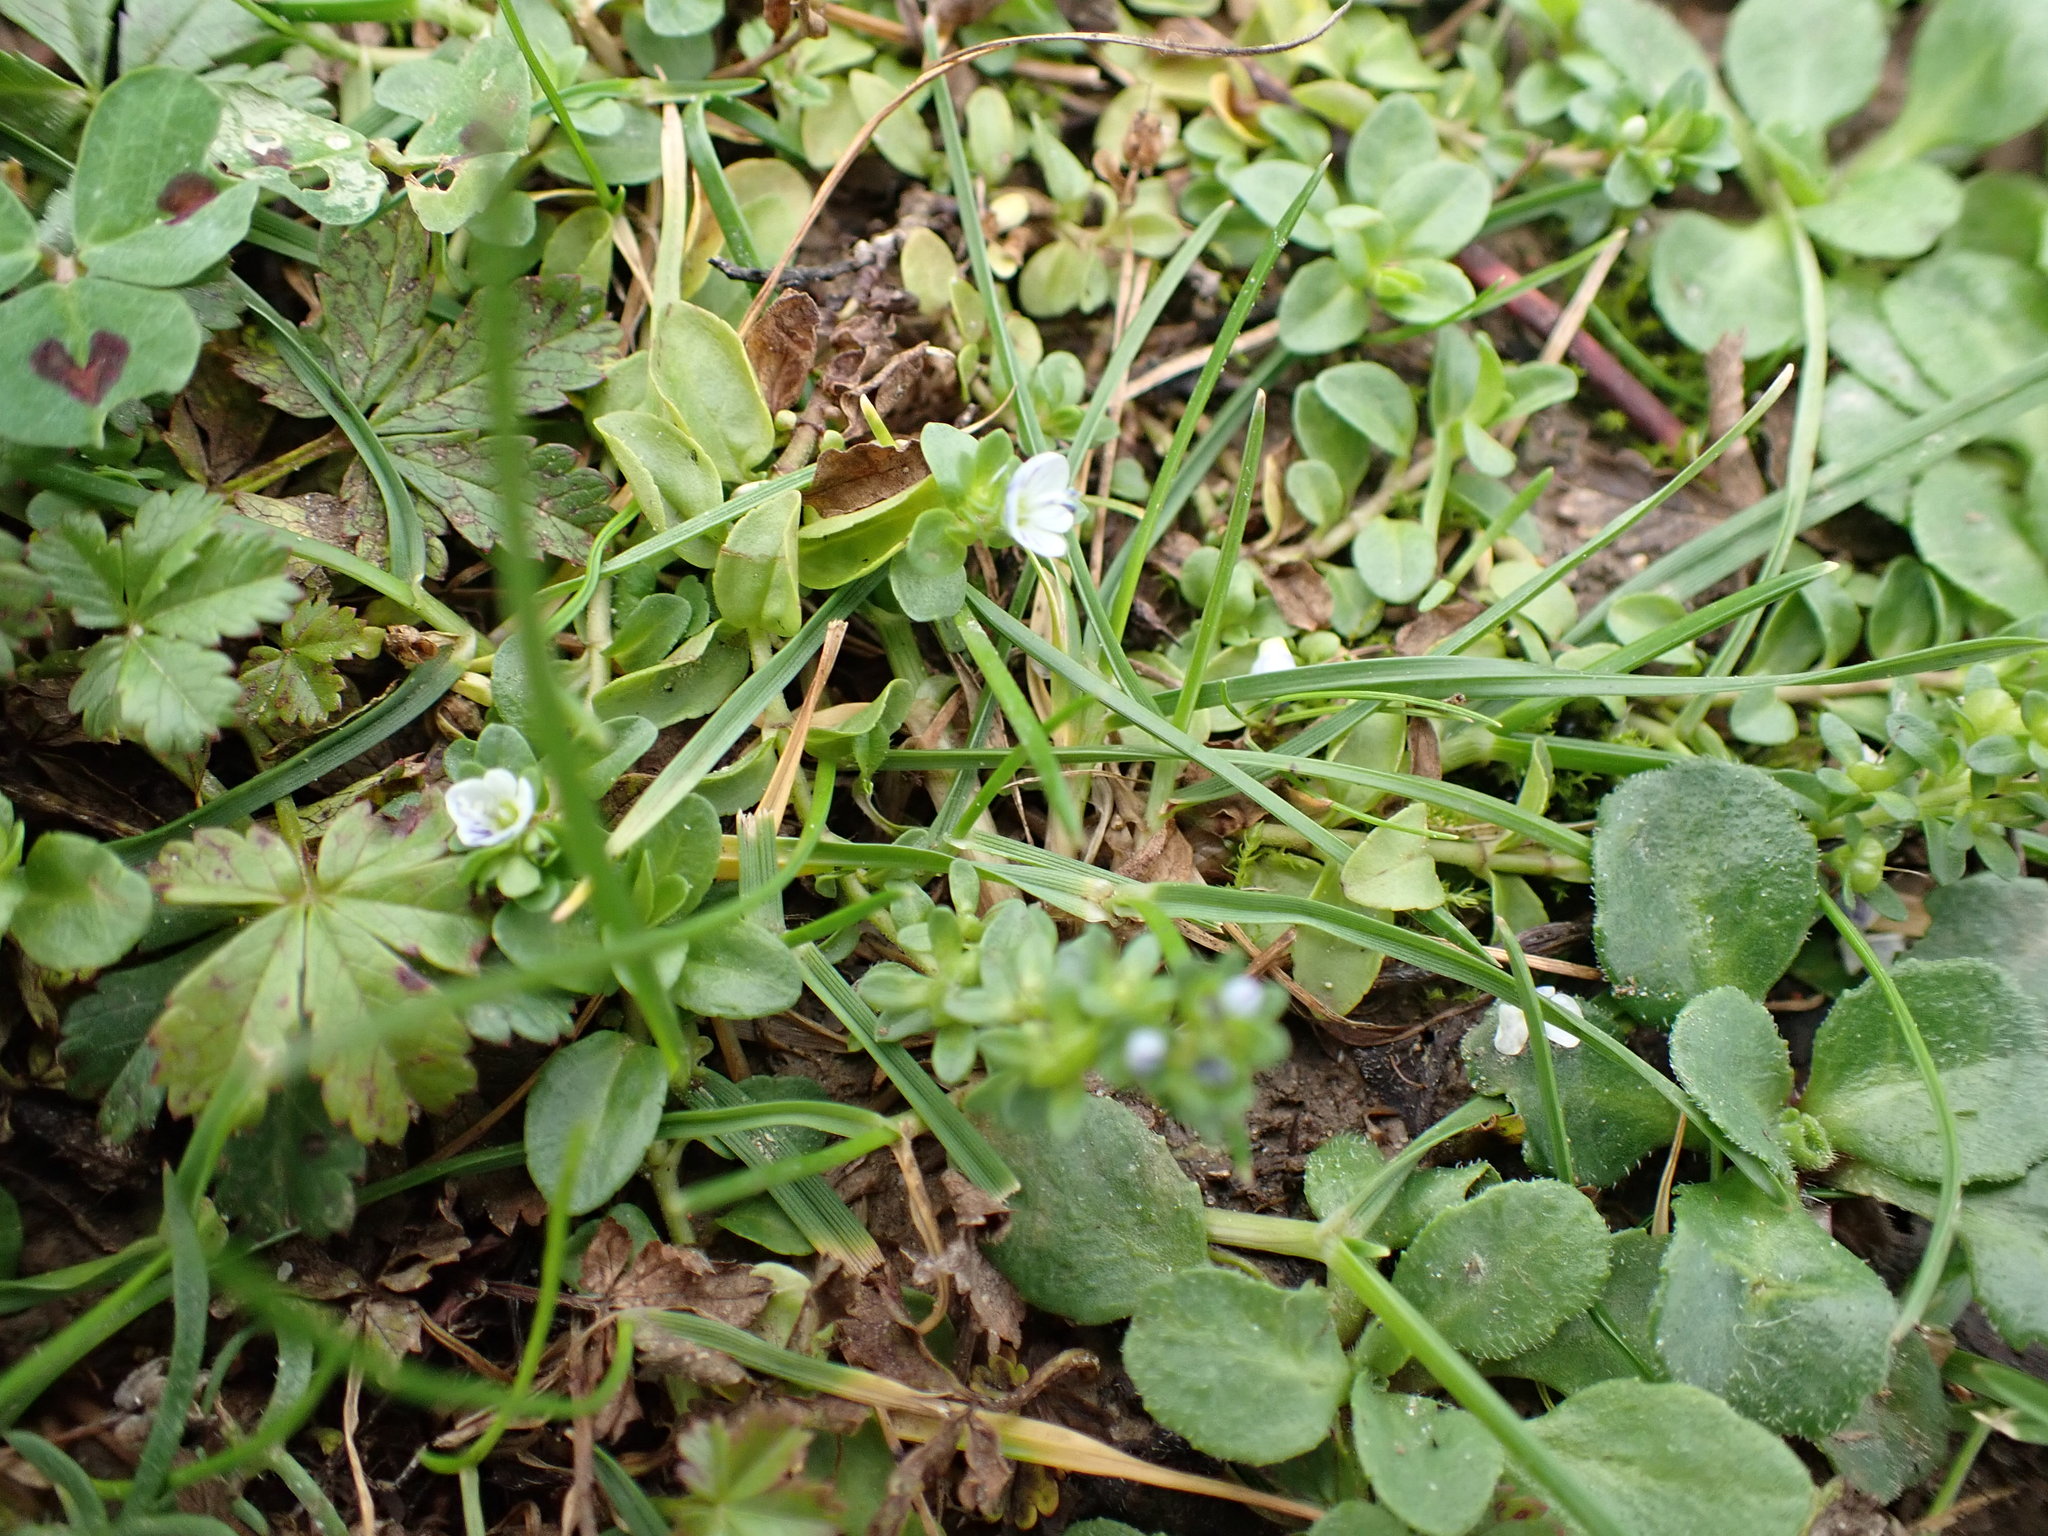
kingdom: Plantae
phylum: Tracheophyta
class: Magnoliopsida
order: Lamiales
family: Plantaginaceae
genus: Veronica
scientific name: Veronica serpyllifolia
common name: Thyme-leaved speedwell
